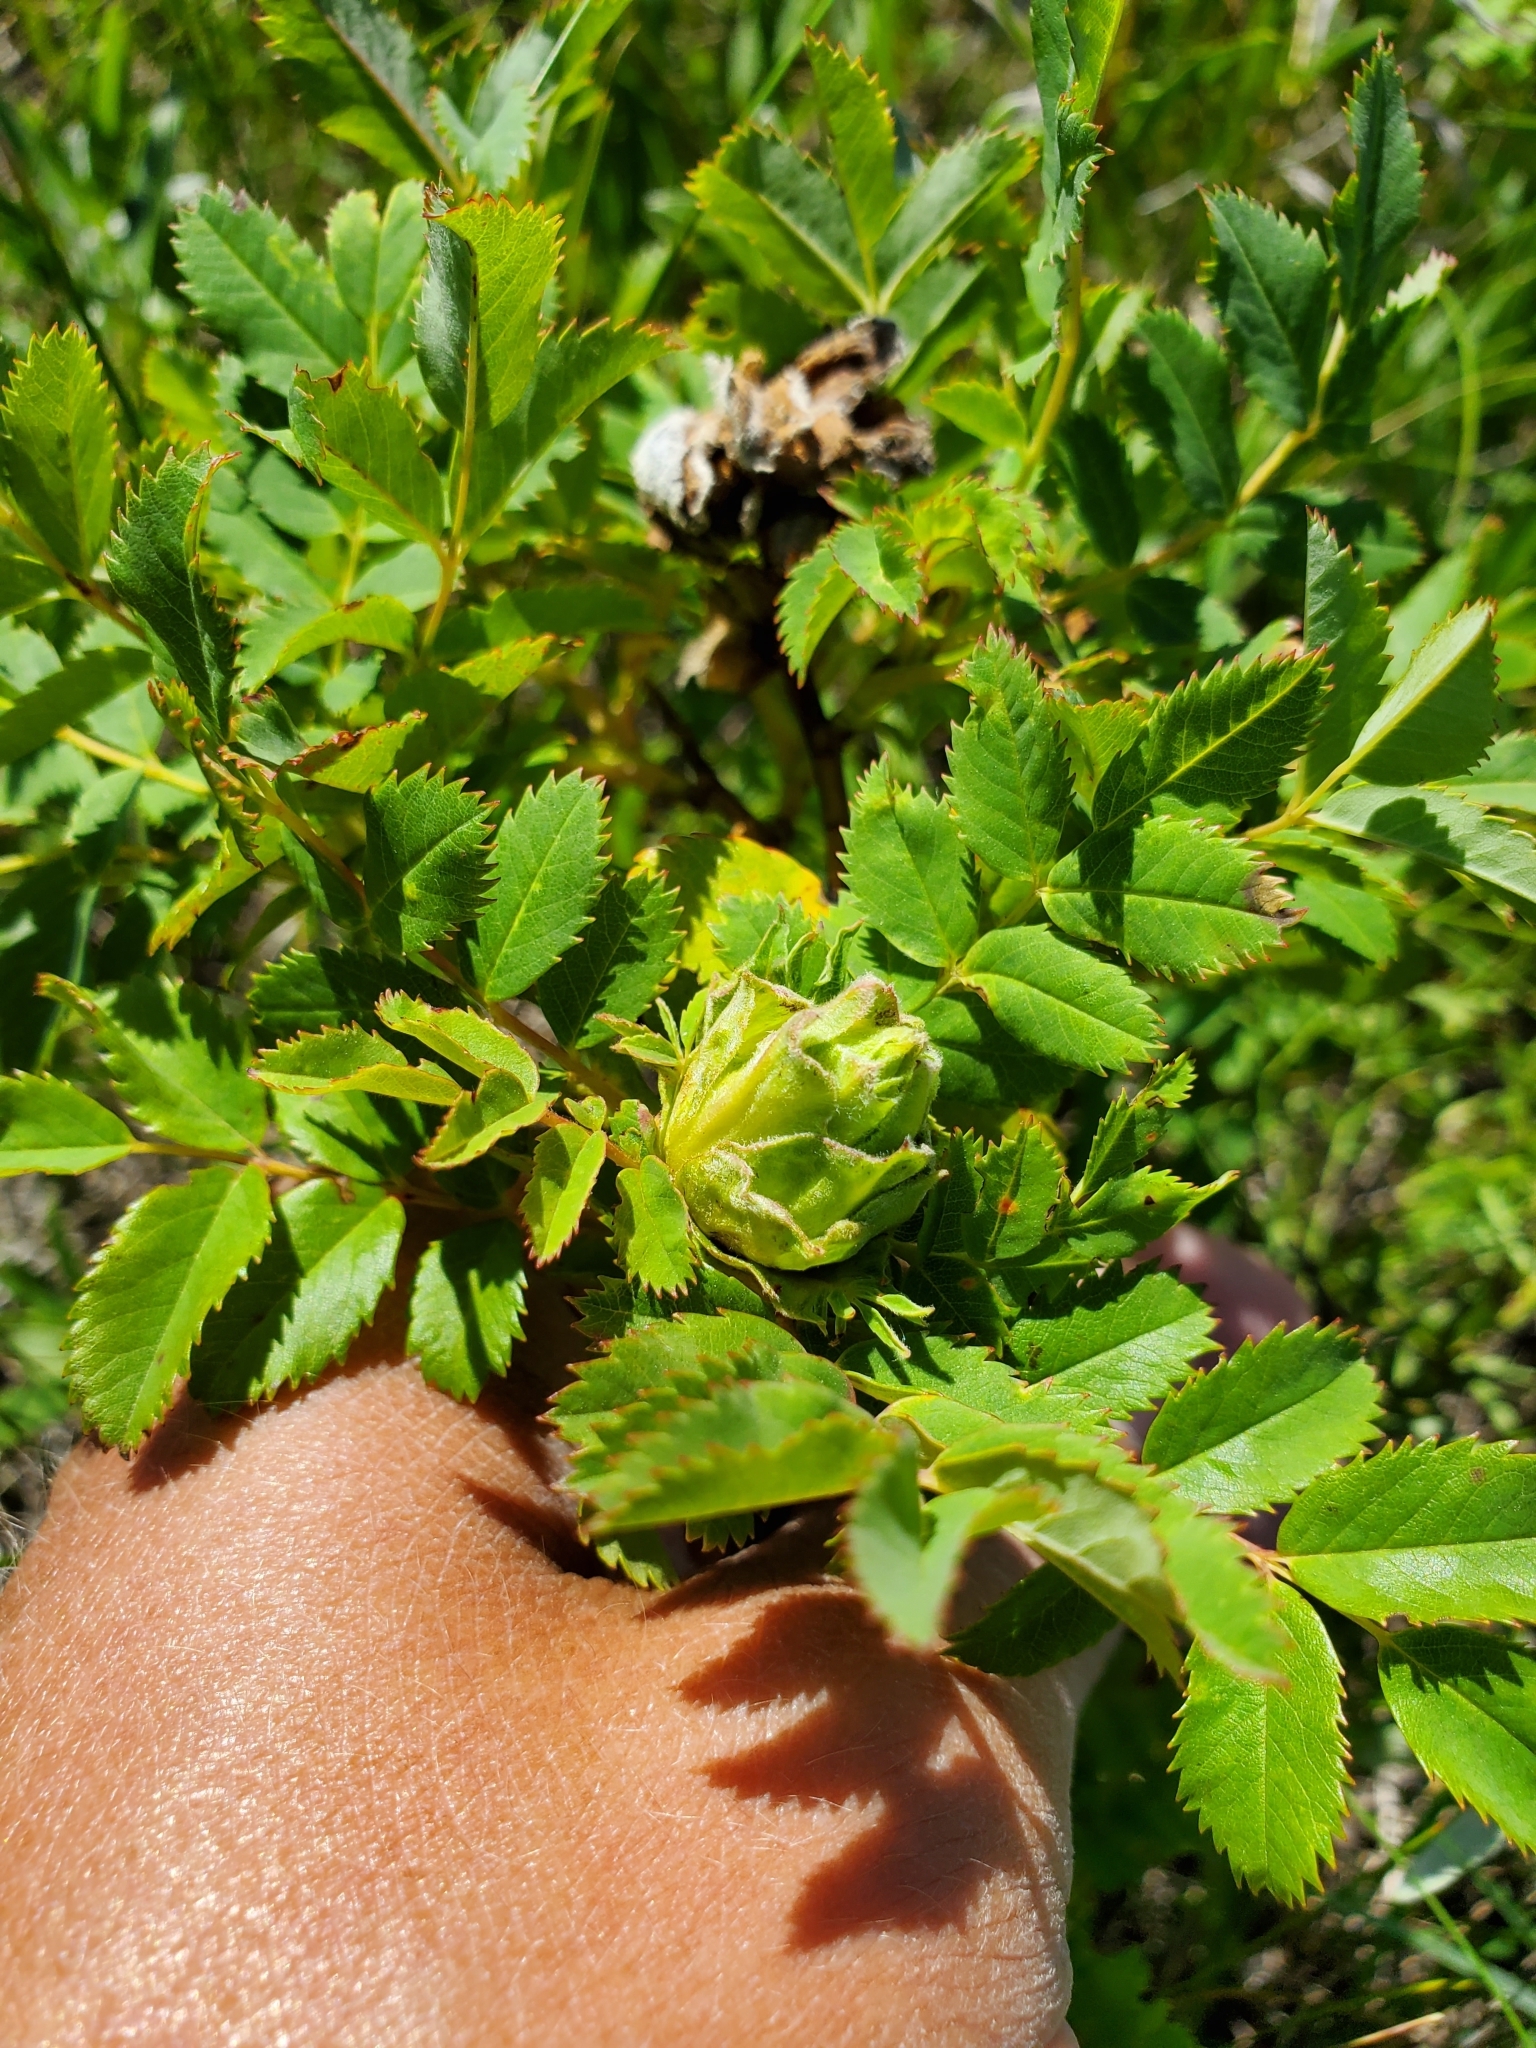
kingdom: Animalia
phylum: Arthropoda
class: Insecta
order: Diptera
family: Cecidomyiidae
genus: Rabdophaga
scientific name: Rabdophaga rosacea
